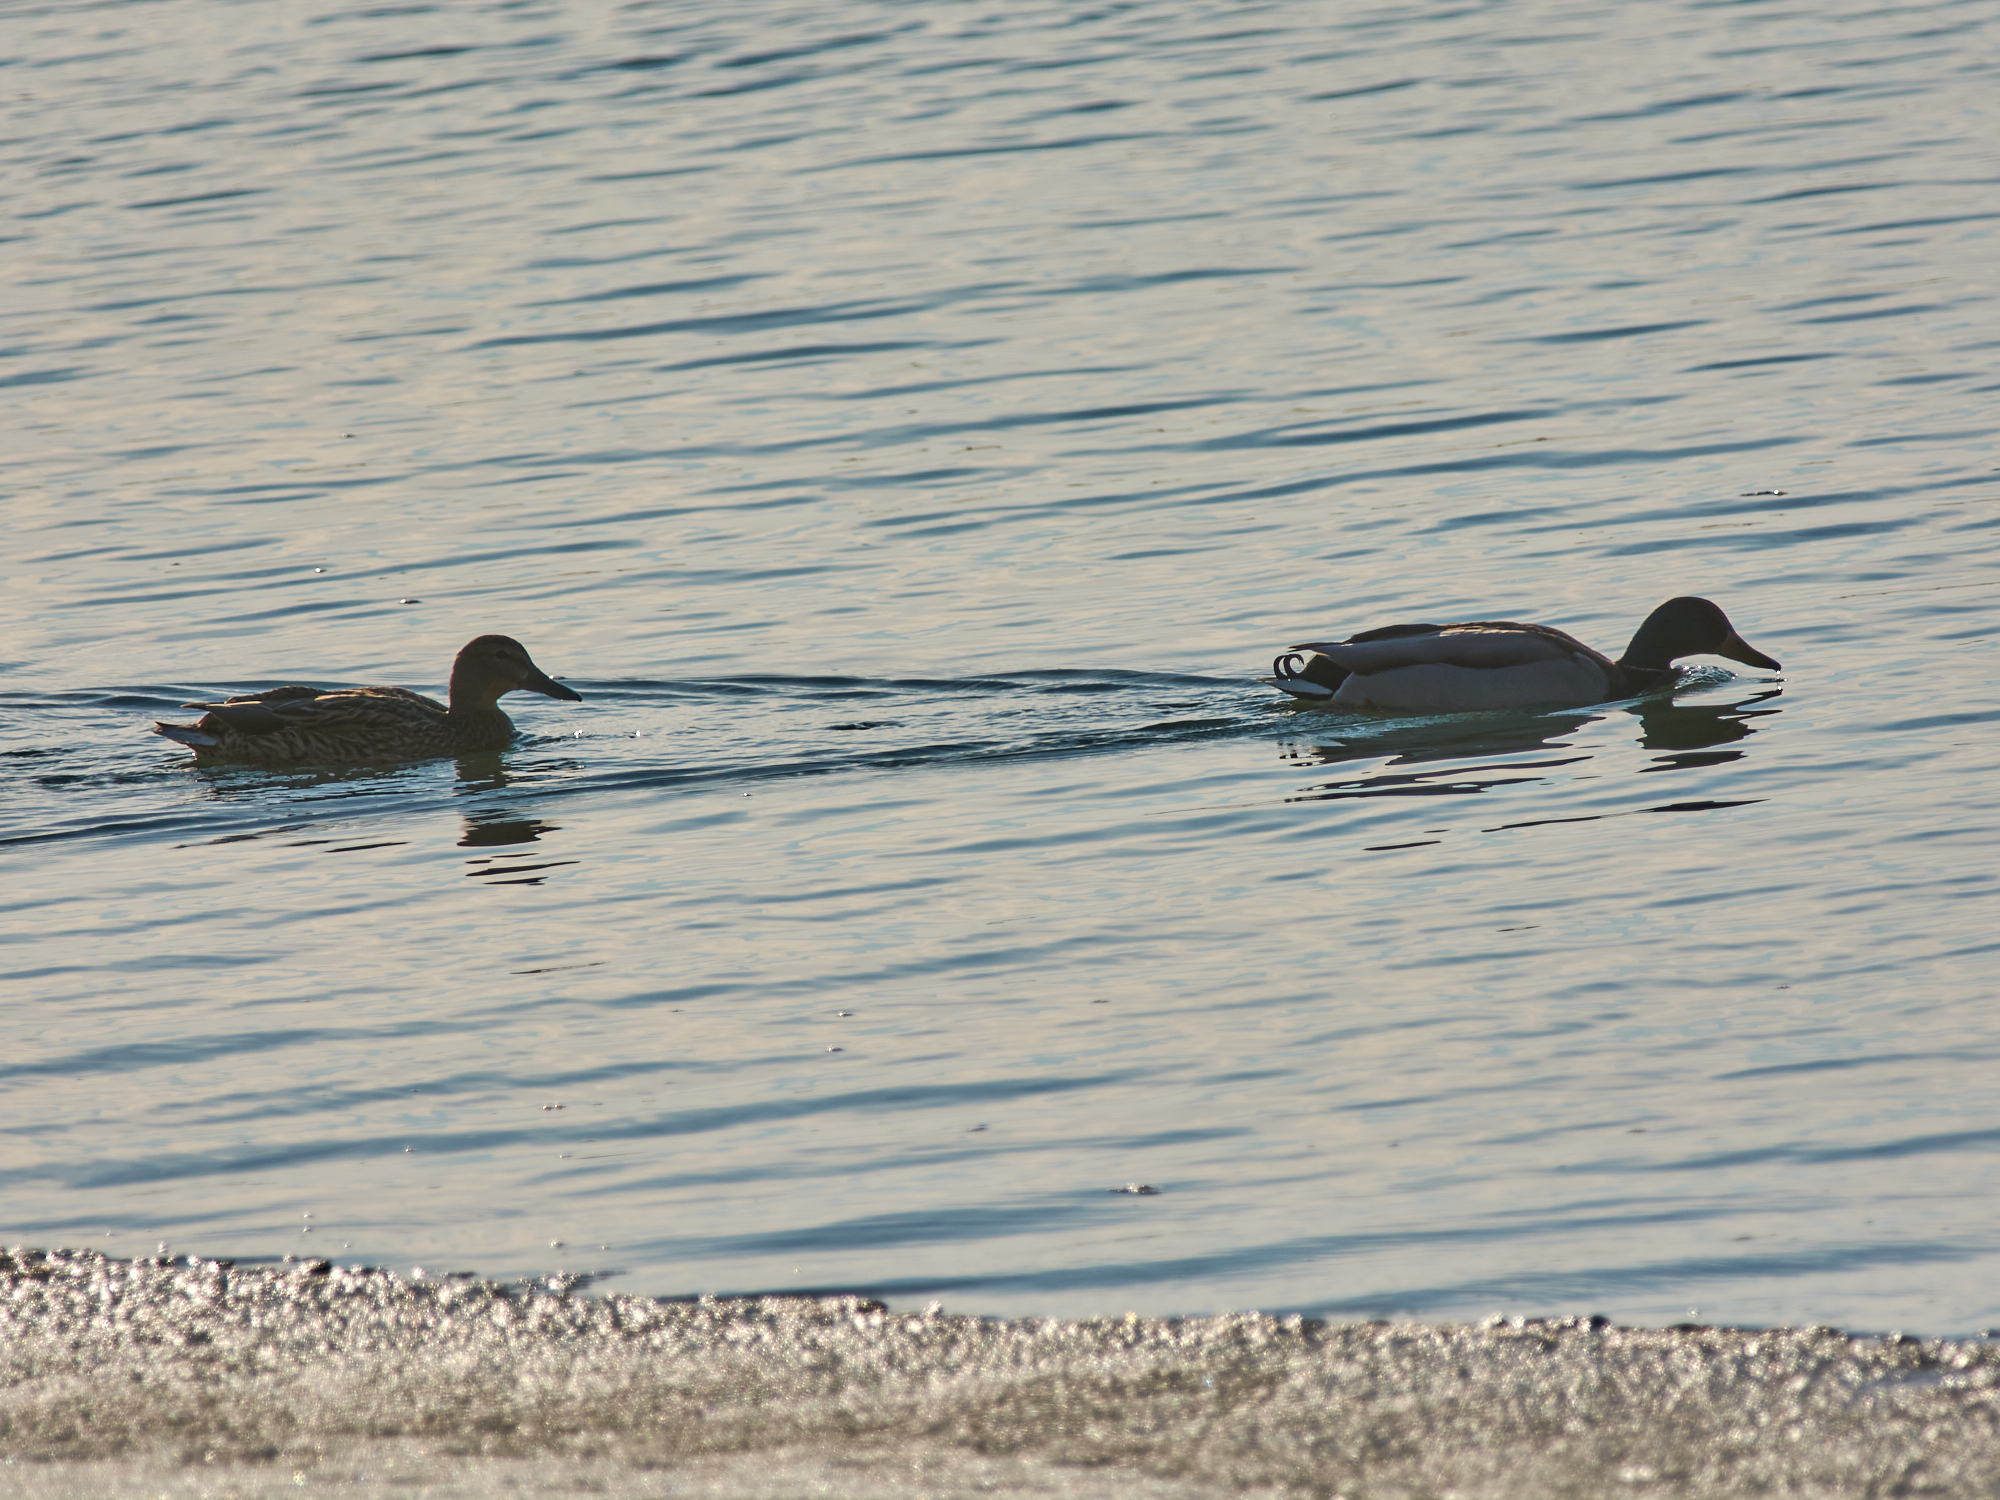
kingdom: Animalia
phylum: Chordata
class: Aves
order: Anseriformes
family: Anatidae
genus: Anas
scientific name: Anas platyrhynchos
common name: Mallard
